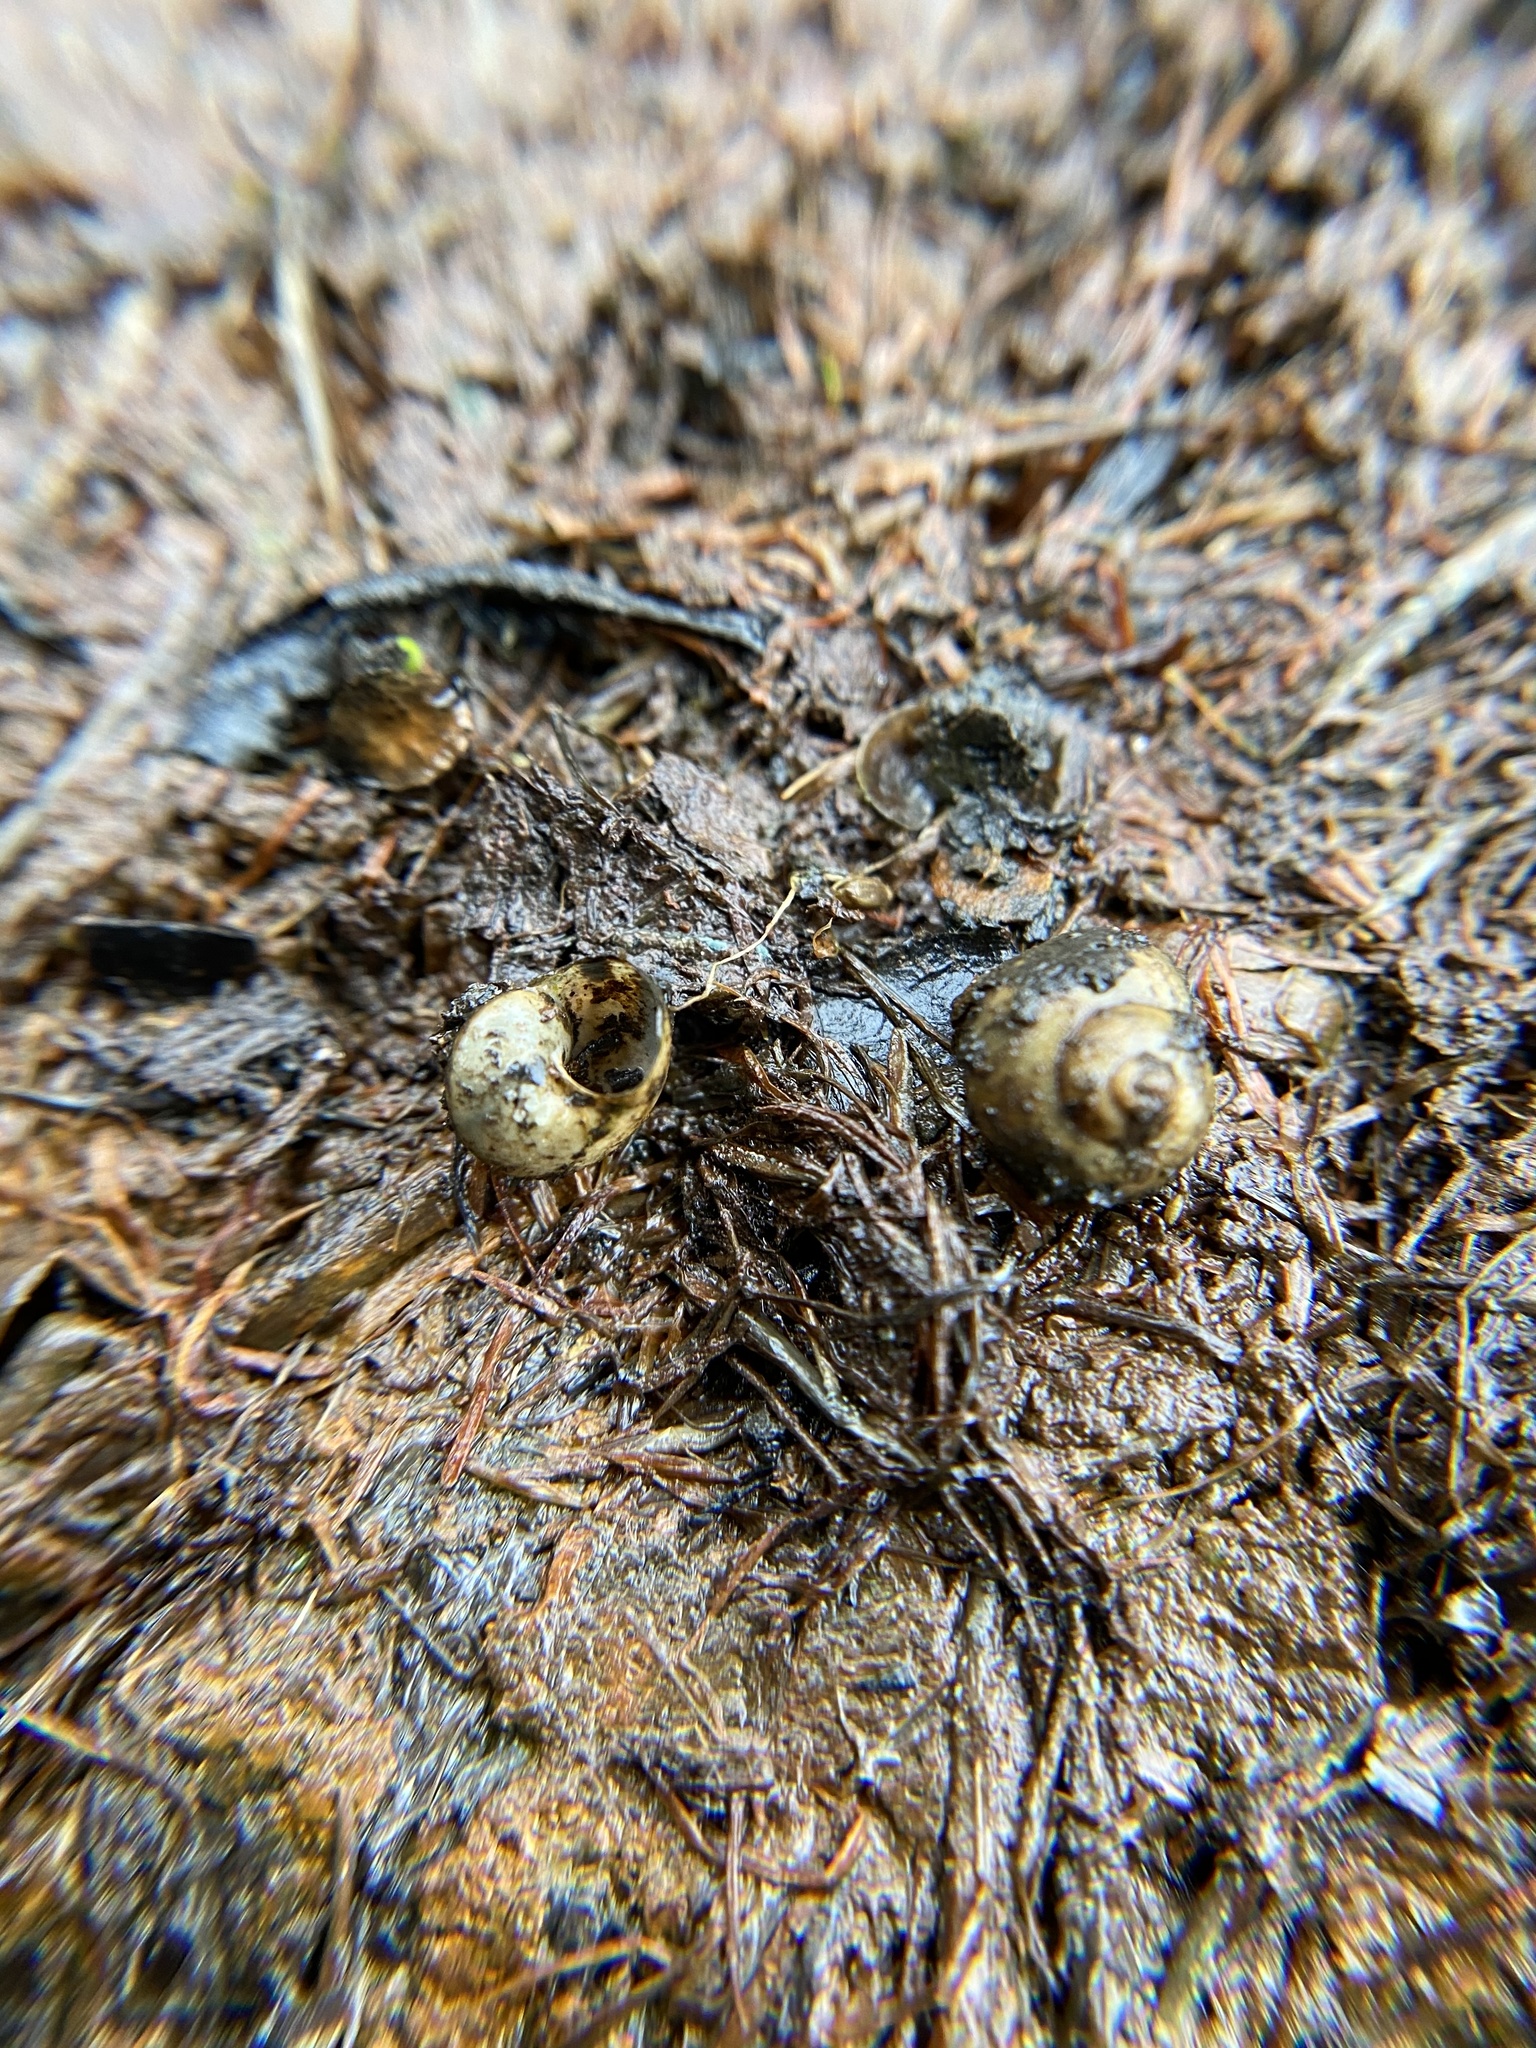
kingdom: Animalia
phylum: Mollusca
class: Gastropoda
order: Architaenioglossa
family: Viviparidae
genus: Cipangopaludina
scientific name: Cipangopaludina chinensis
